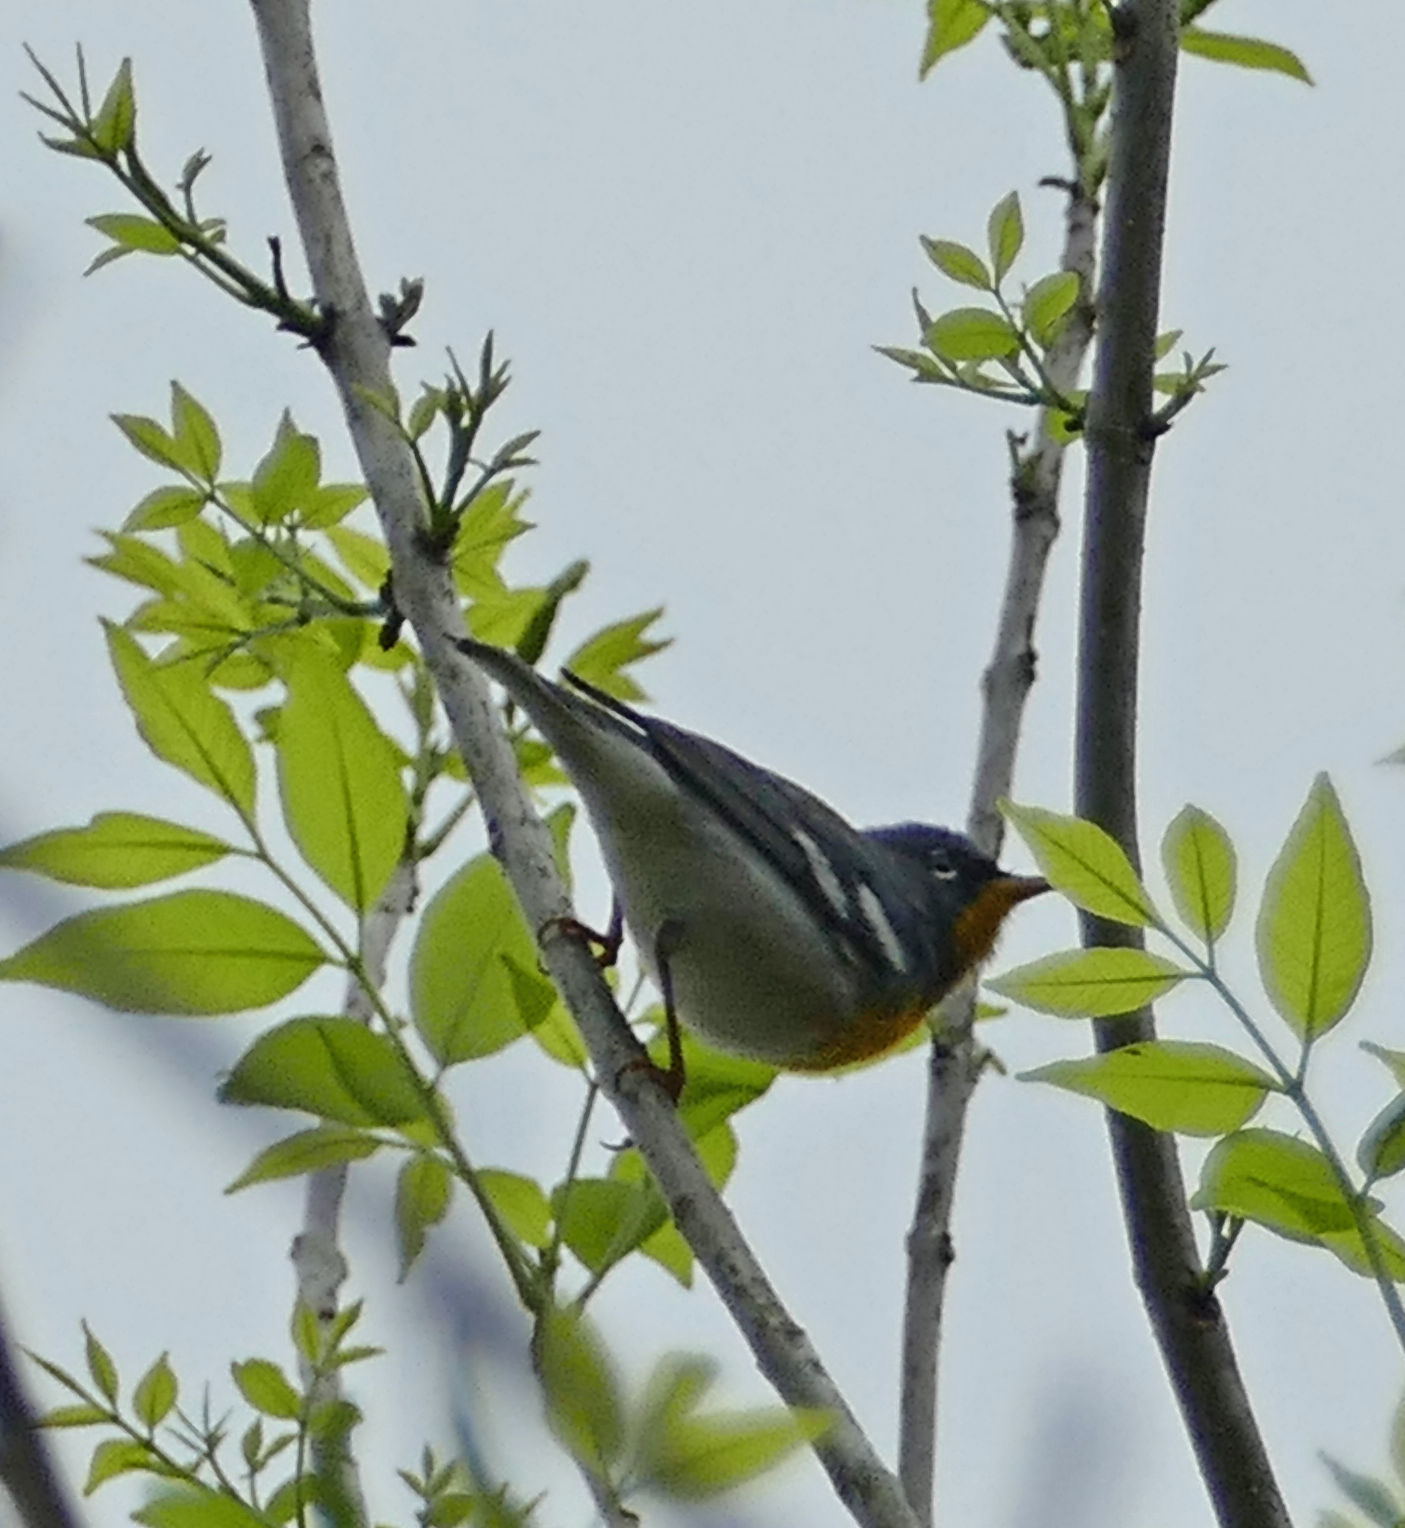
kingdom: Animalia
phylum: Chordata
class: Aves
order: Passeriformes
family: Parulidae
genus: Setophaga
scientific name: Setophaga americana
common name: Northern parula
